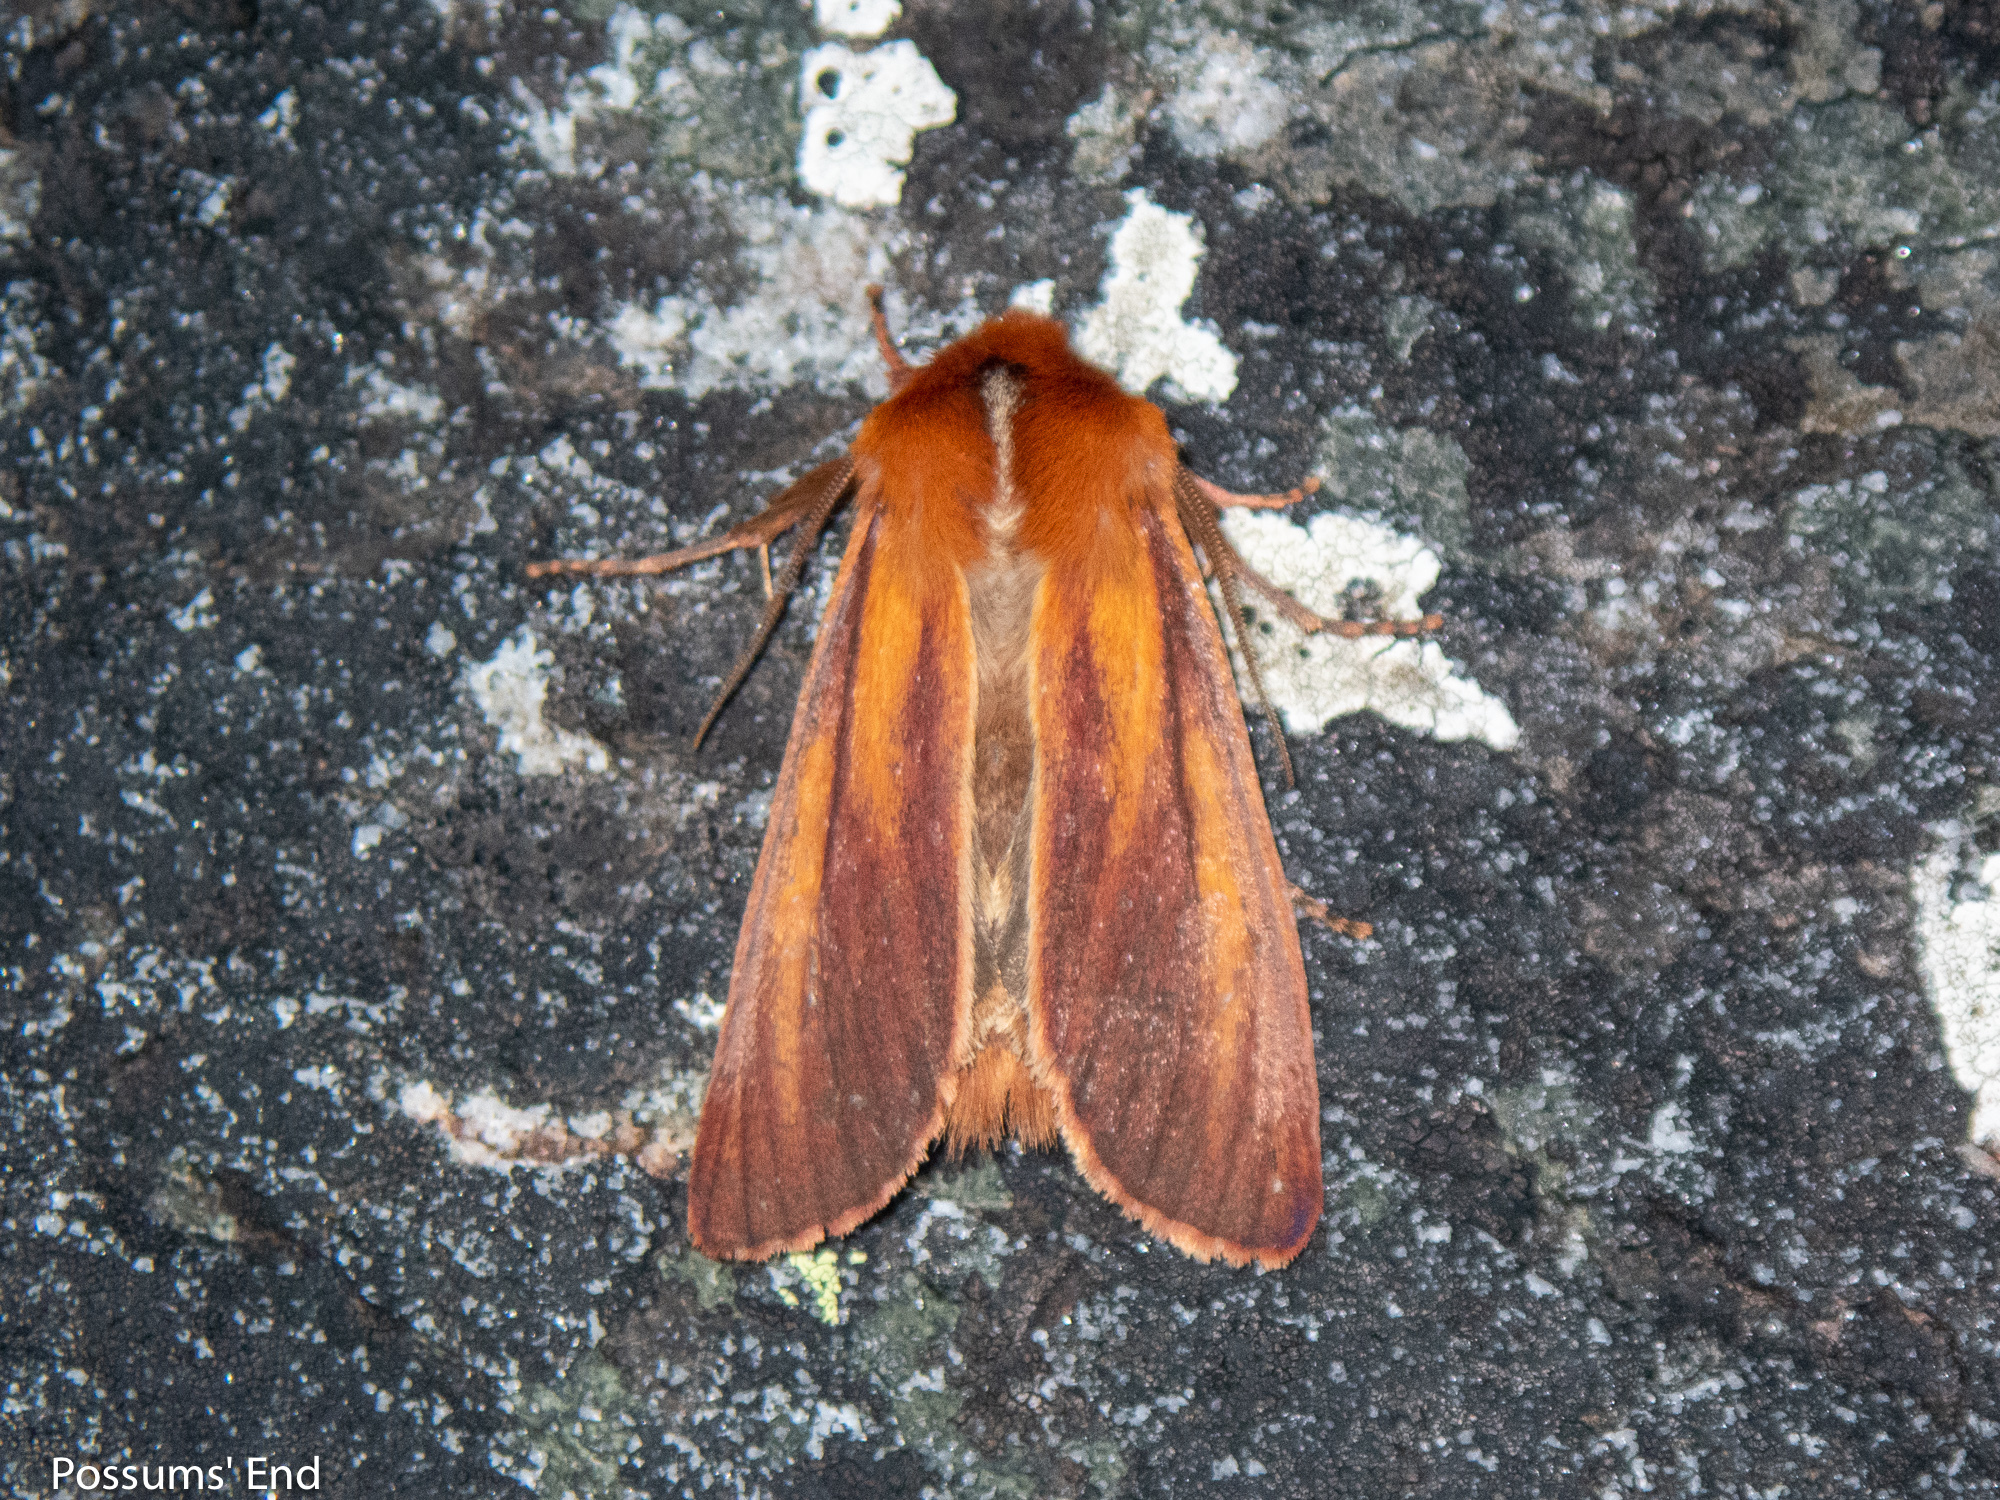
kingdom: Animalia
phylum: Arthropoda
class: Insecta
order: Lepidoptera
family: Noctuidae
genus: Ichneutica
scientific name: Ichneutica
